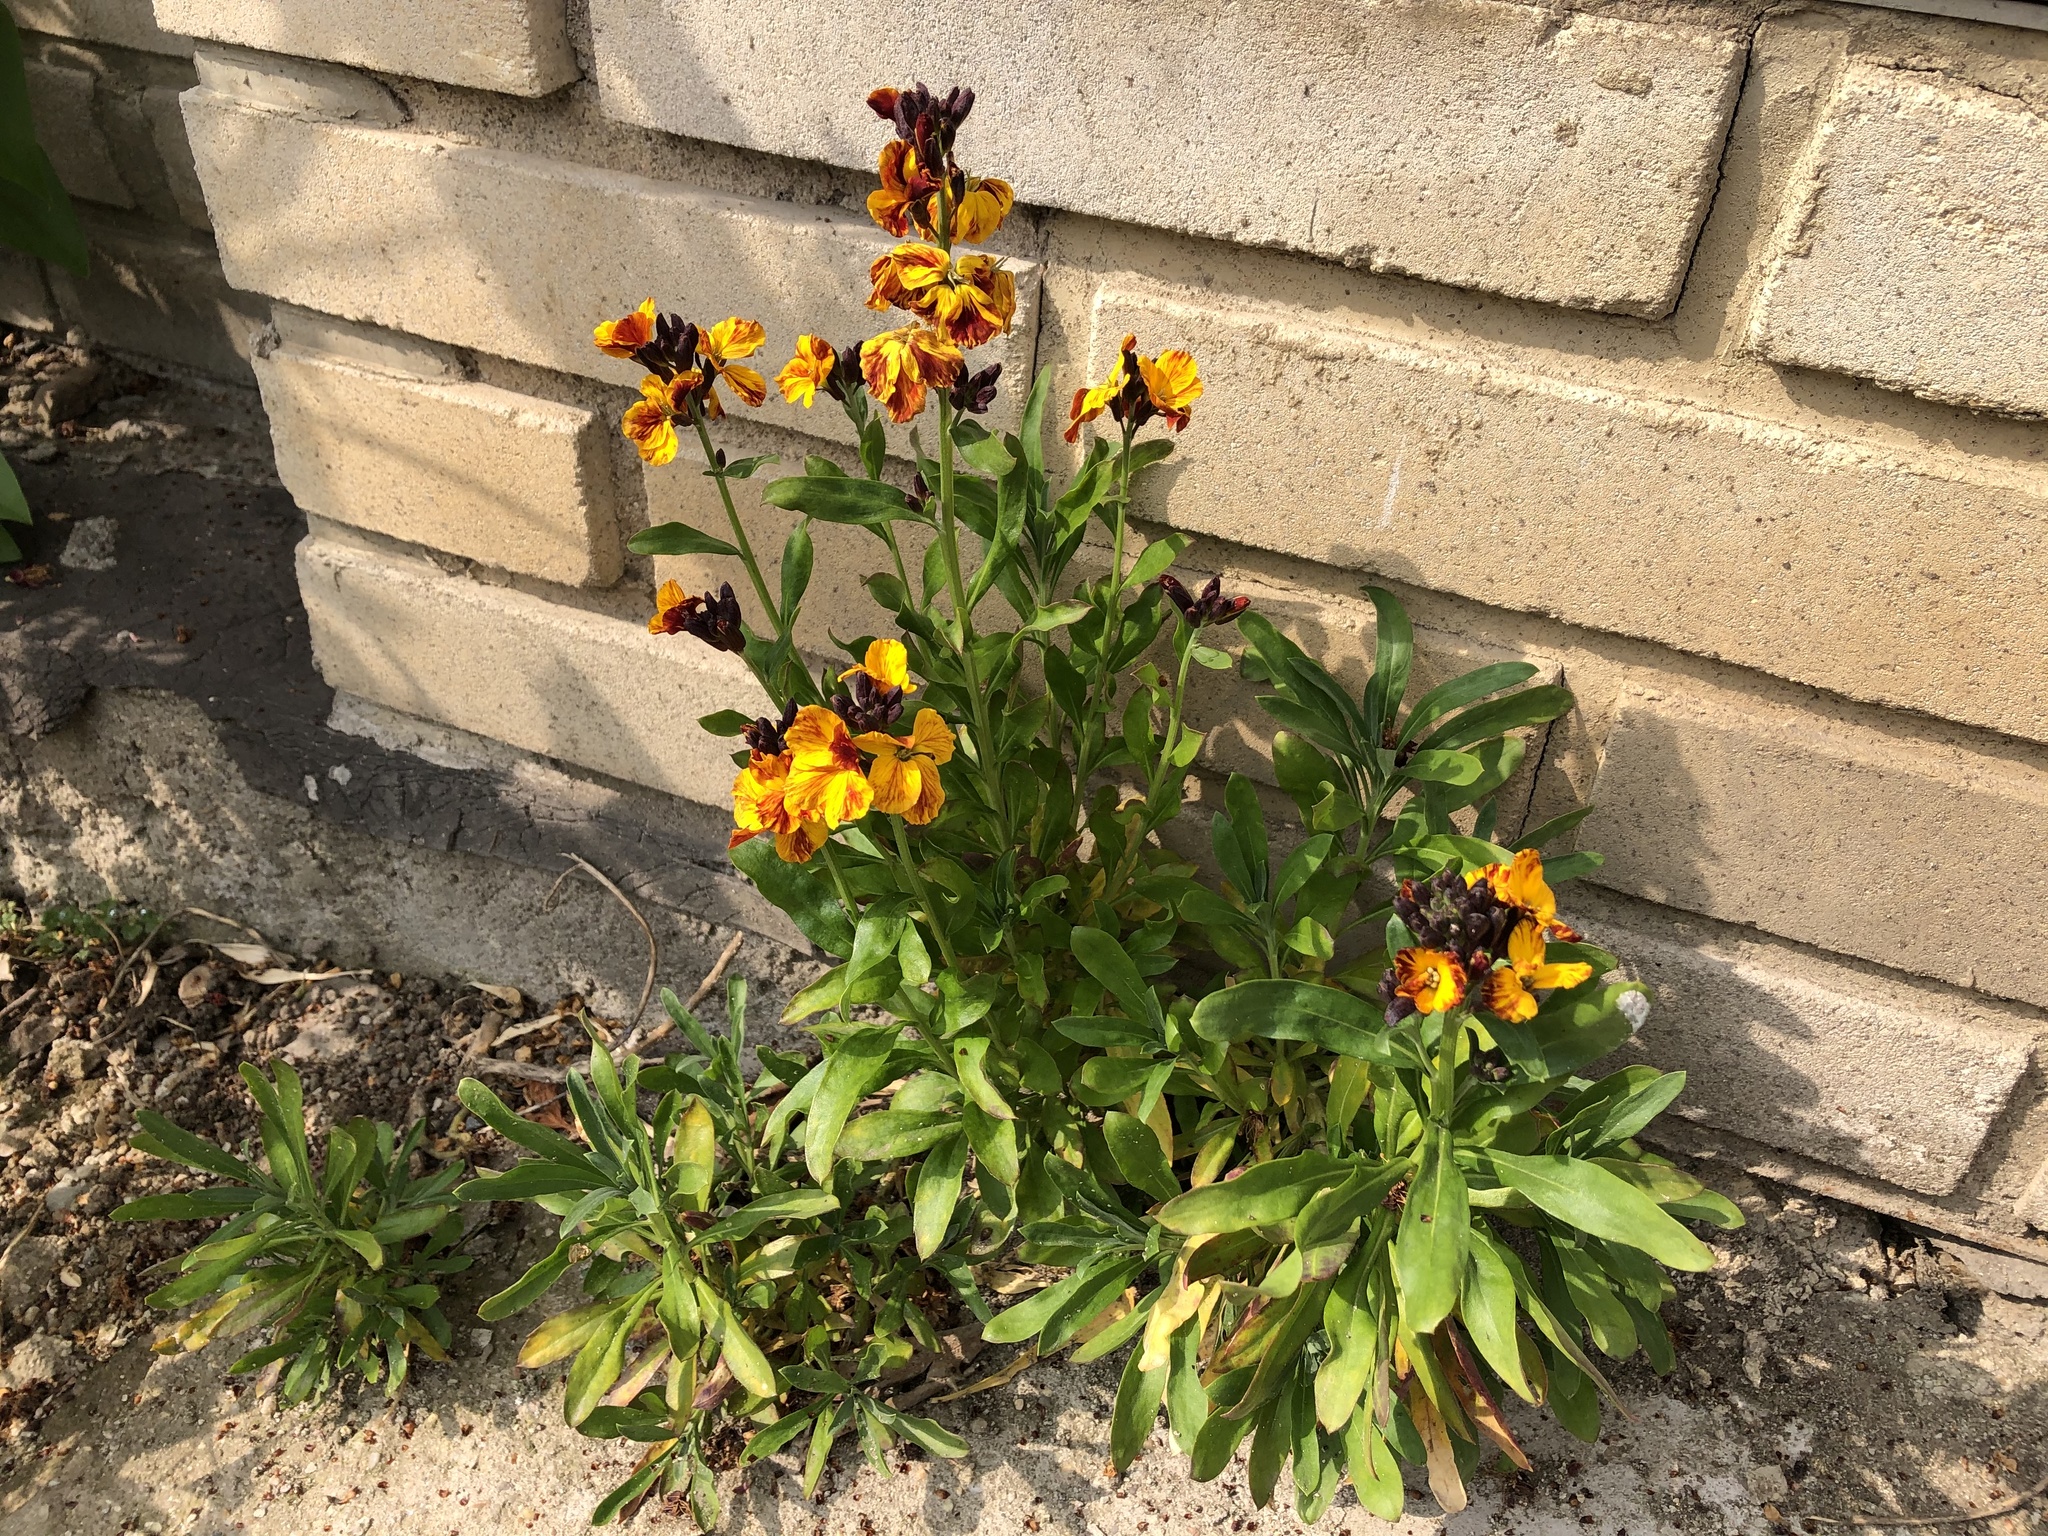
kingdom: Plantae
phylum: Tracheophyta
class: Magnoliopsida
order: Brassicales
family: Brassicaceae
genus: Erysimum
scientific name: Erysimum cheiri
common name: Wallflower
